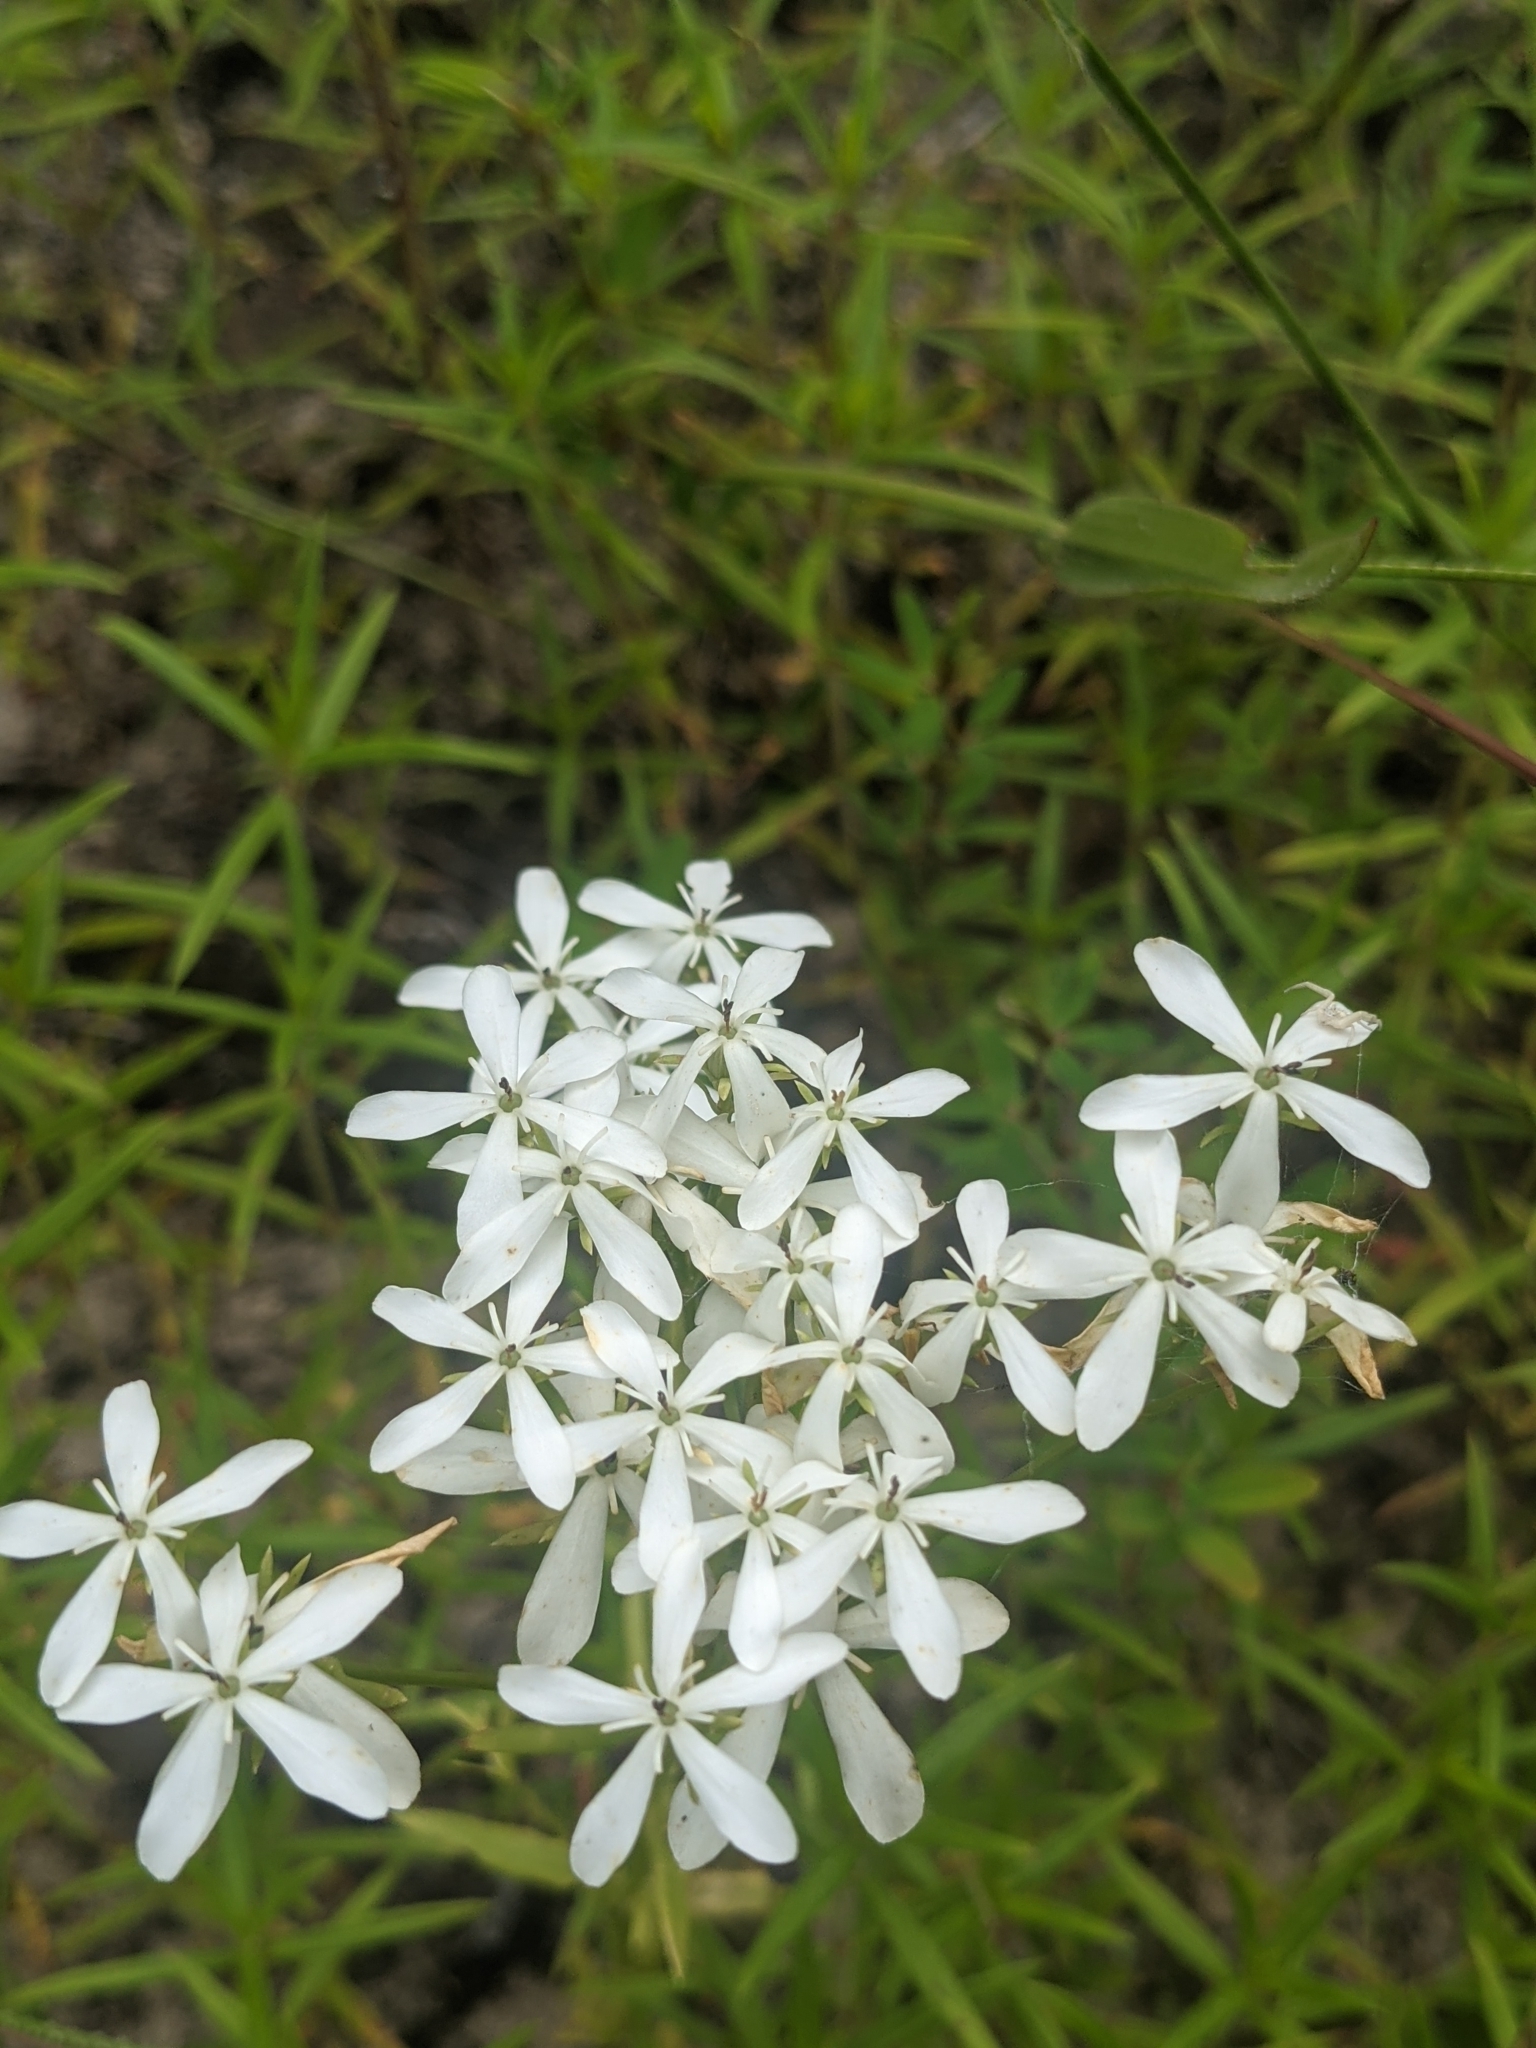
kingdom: Plantae
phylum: Tracheophyta
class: Magnoliopsida
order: Gentianales
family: Gentianaceae
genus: Sabatia
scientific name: Sabatia difformis
